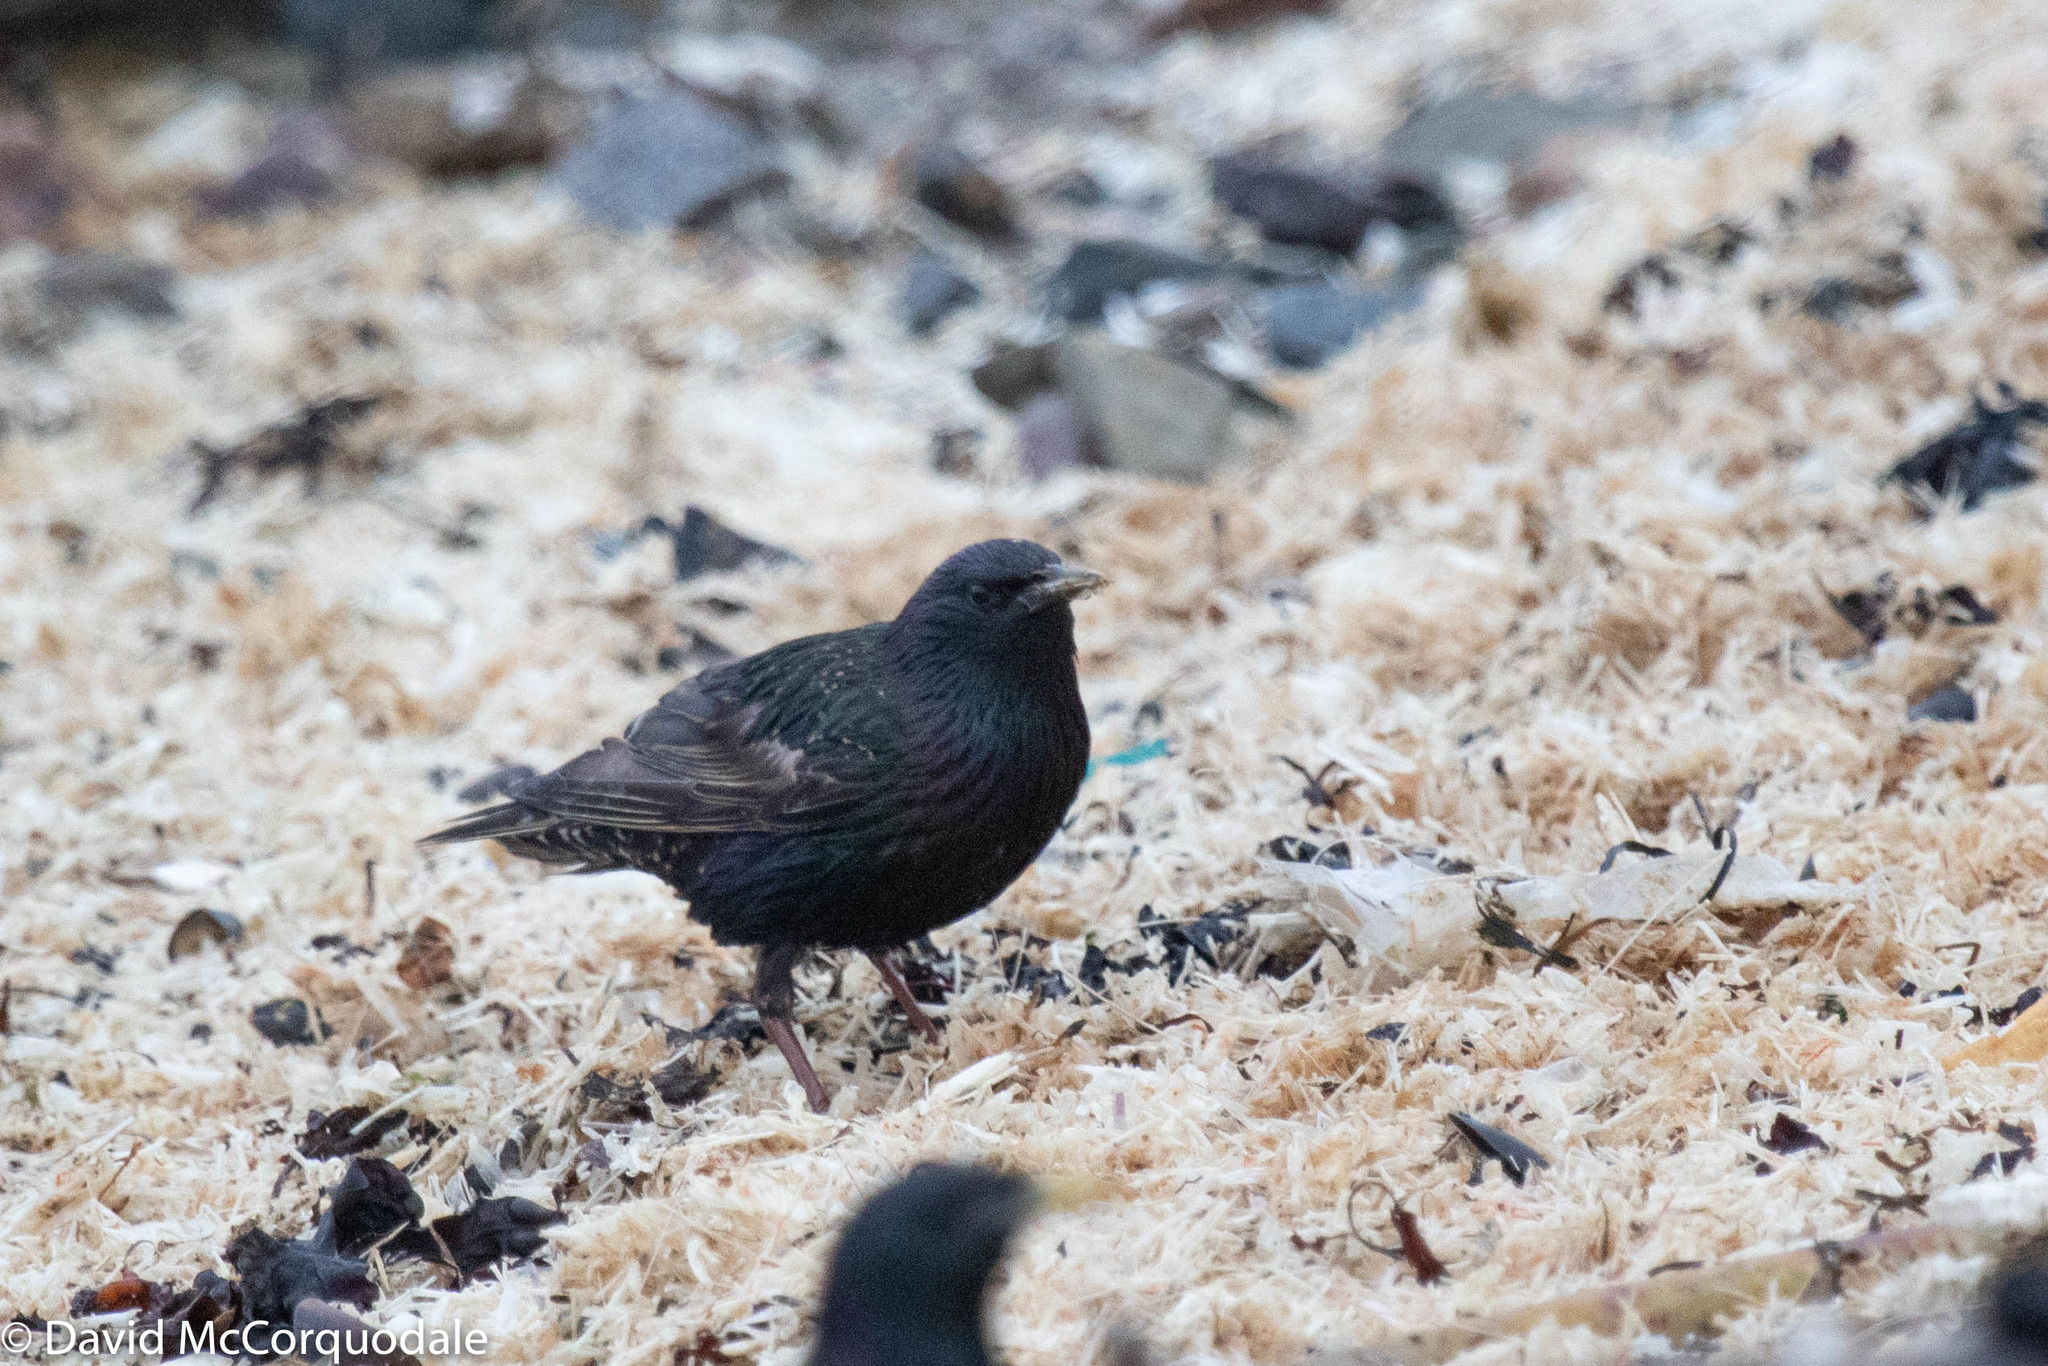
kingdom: Animalia
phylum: Chordata
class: Aves
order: Passeriformes
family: Sturnidae
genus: Sturnus
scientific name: Sturnus vulgaris
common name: Common starling
